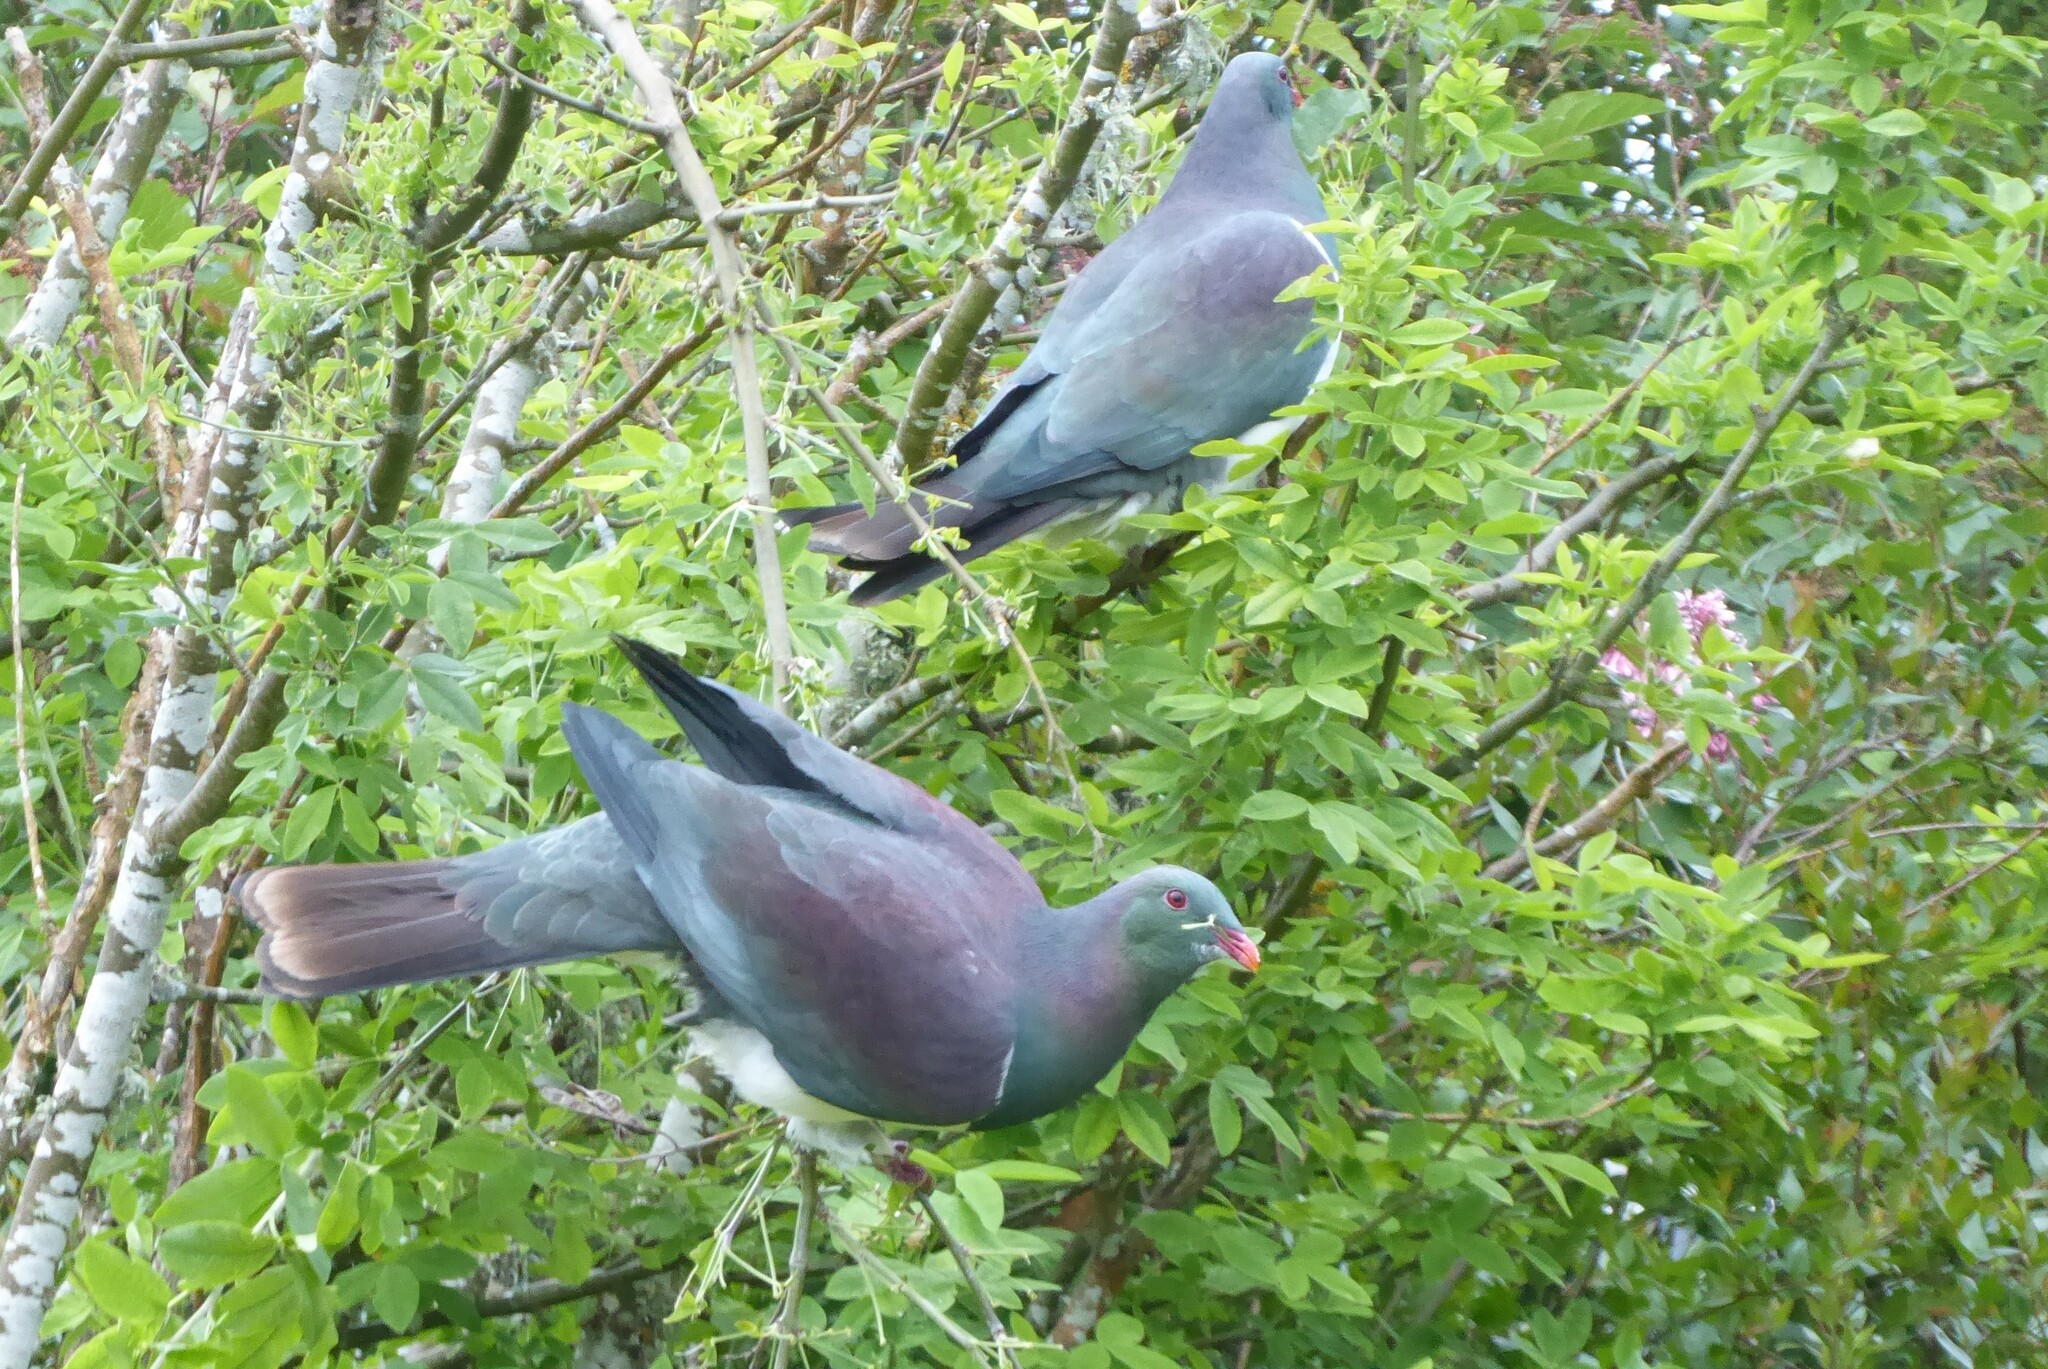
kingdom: Animalia
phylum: Chordata
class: Aves
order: Columbiformes
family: Columbidae
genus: Hemiphaga
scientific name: Hemiphaga novaeseelandiae
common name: New zealand pigeon
